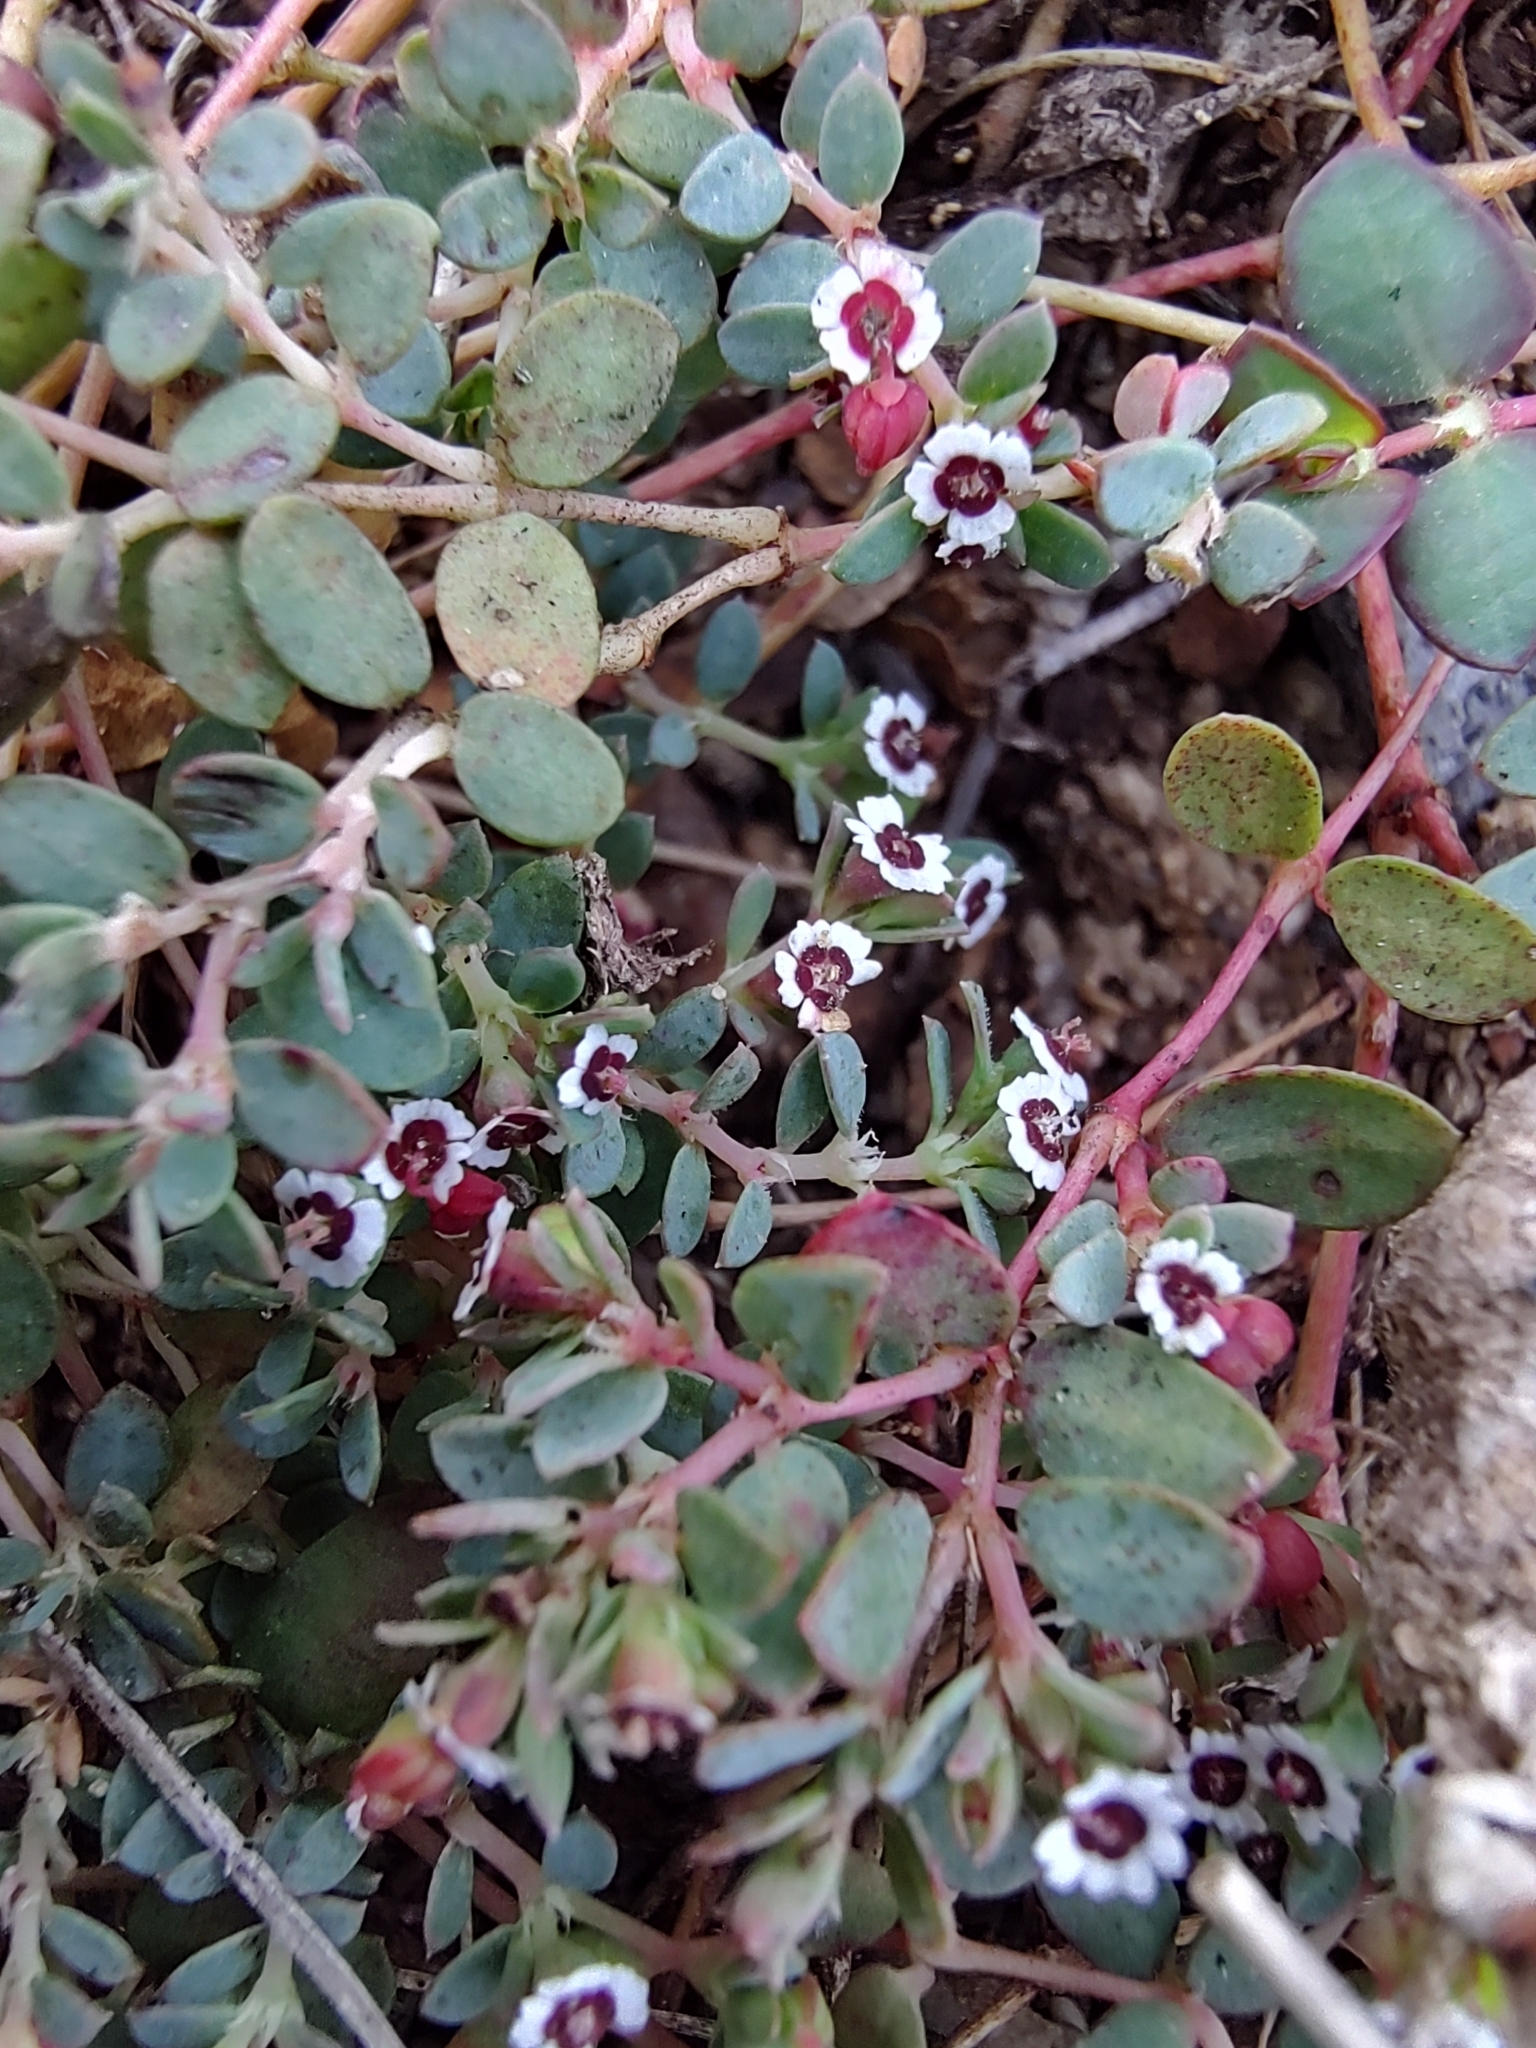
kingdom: Plantae
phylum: Tracheophyta
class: Magnoliopsida
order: Malpighiales
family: Euphorbiaceae
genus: Euphorbia
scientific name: Euphorbia polycarpa
